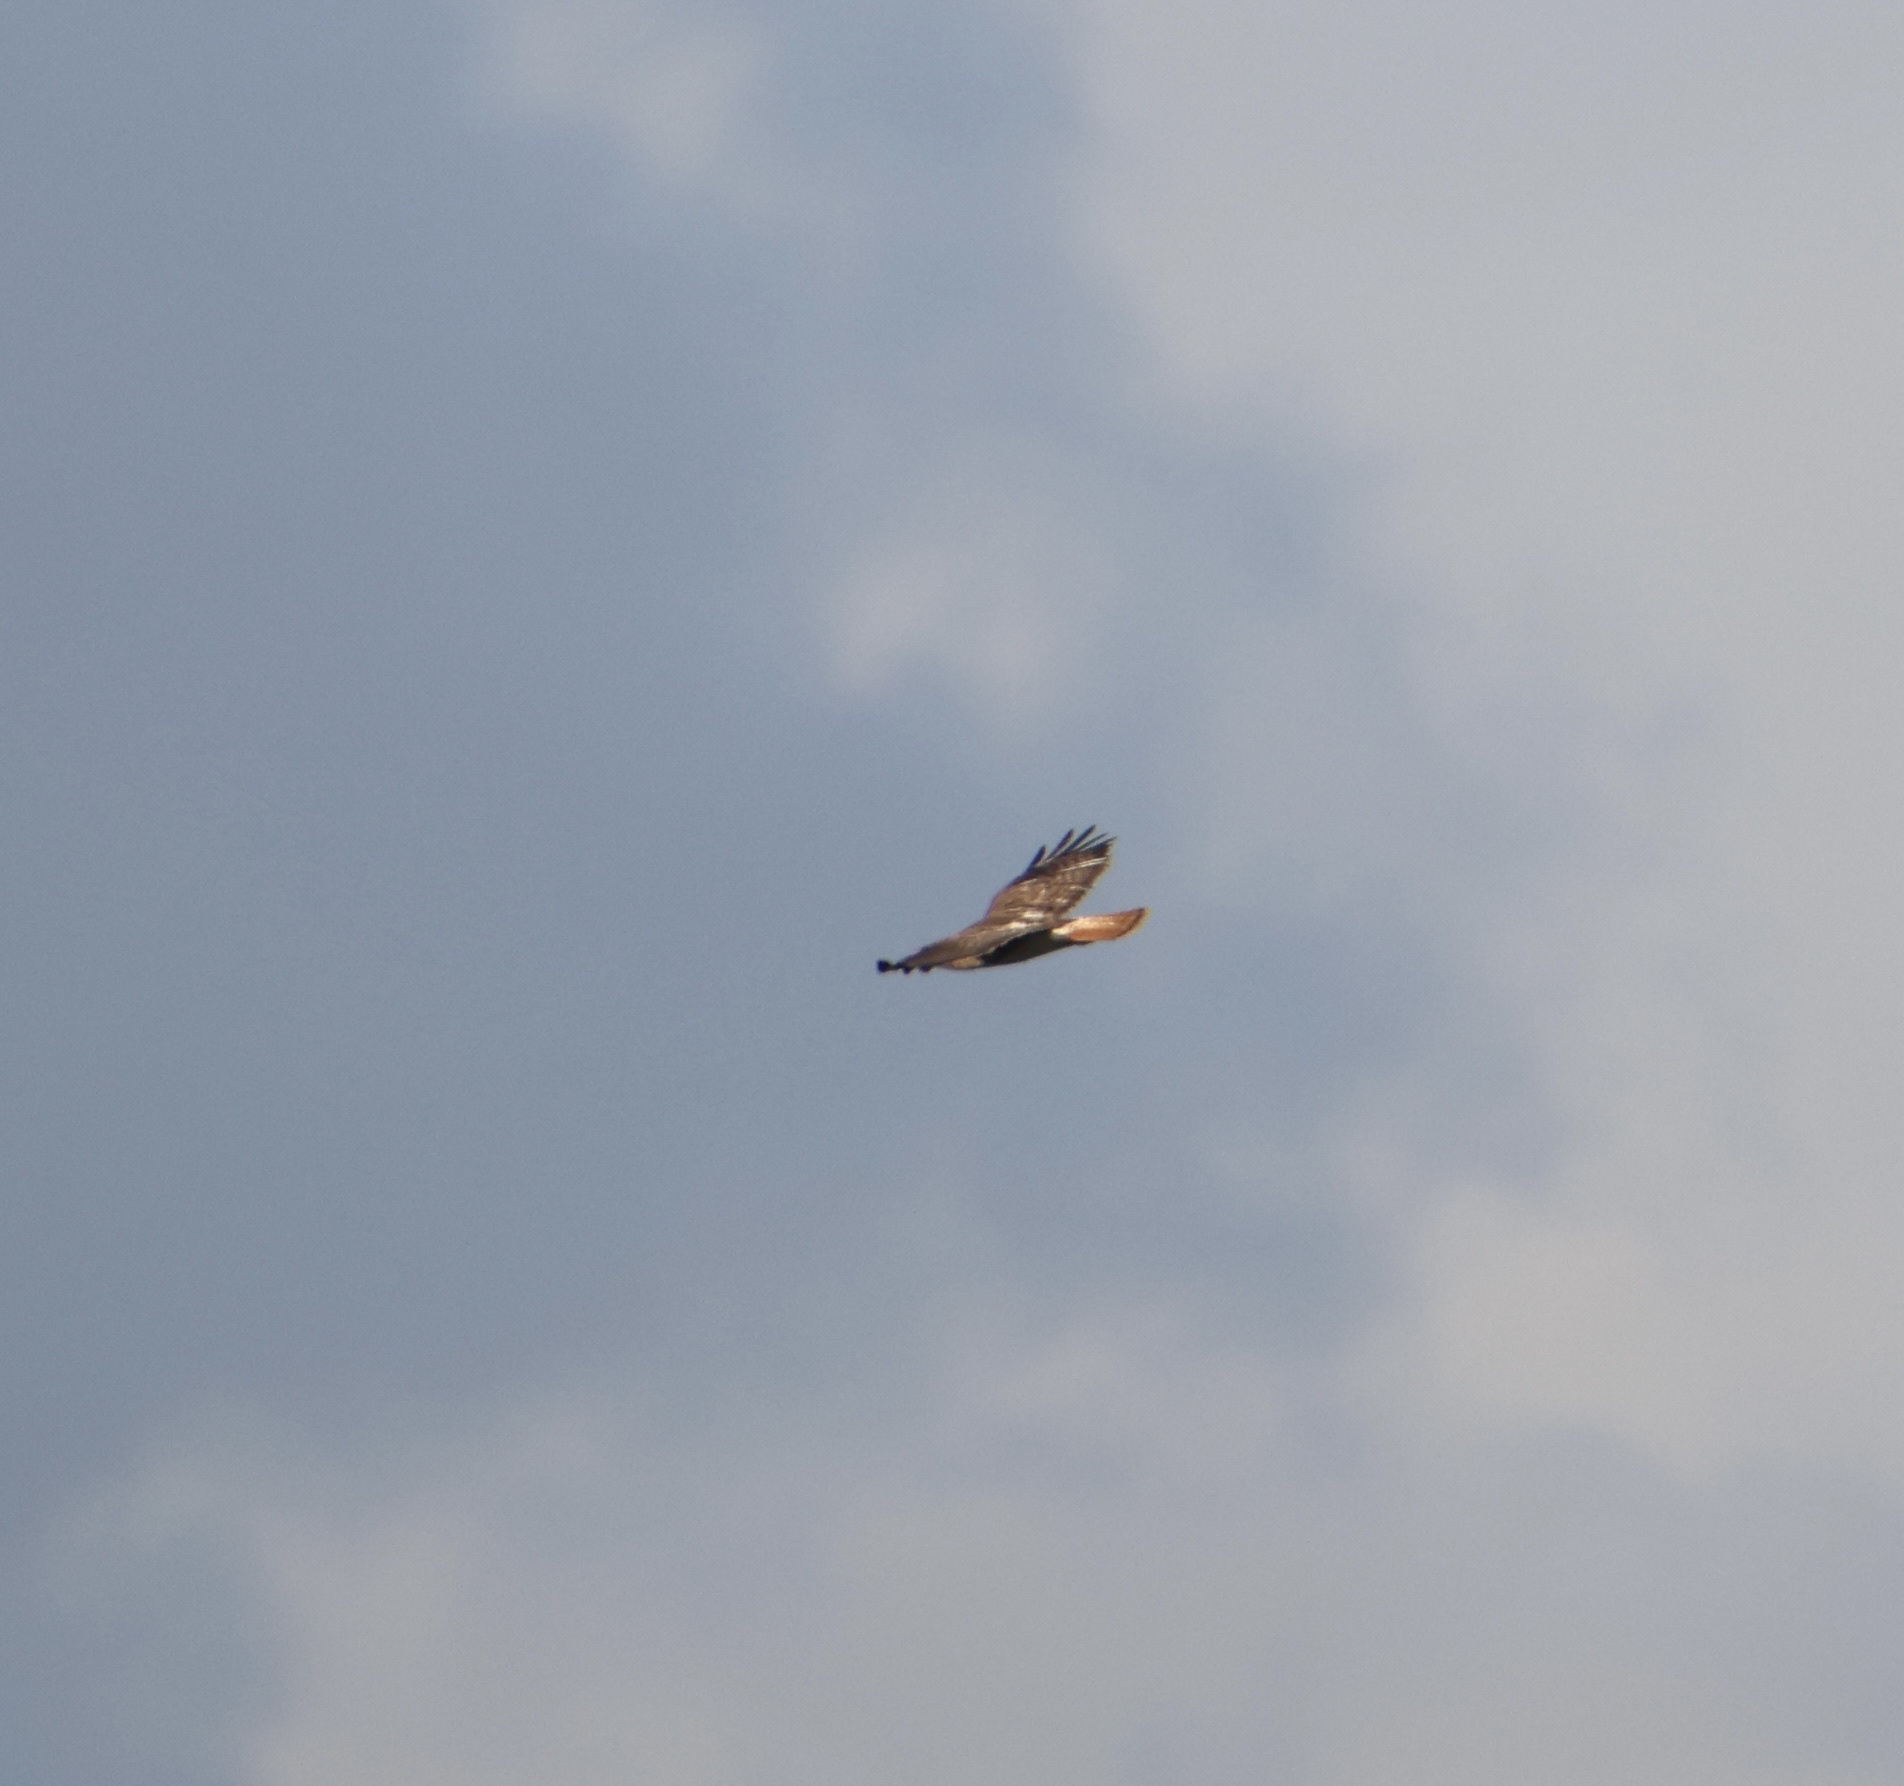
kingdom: Animalia
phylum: Chordata
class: Aves
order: Accipitriformes
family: Accipitridae
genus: Buteo
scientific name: Buteo jamaicensis
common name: Red-tailed hawk
